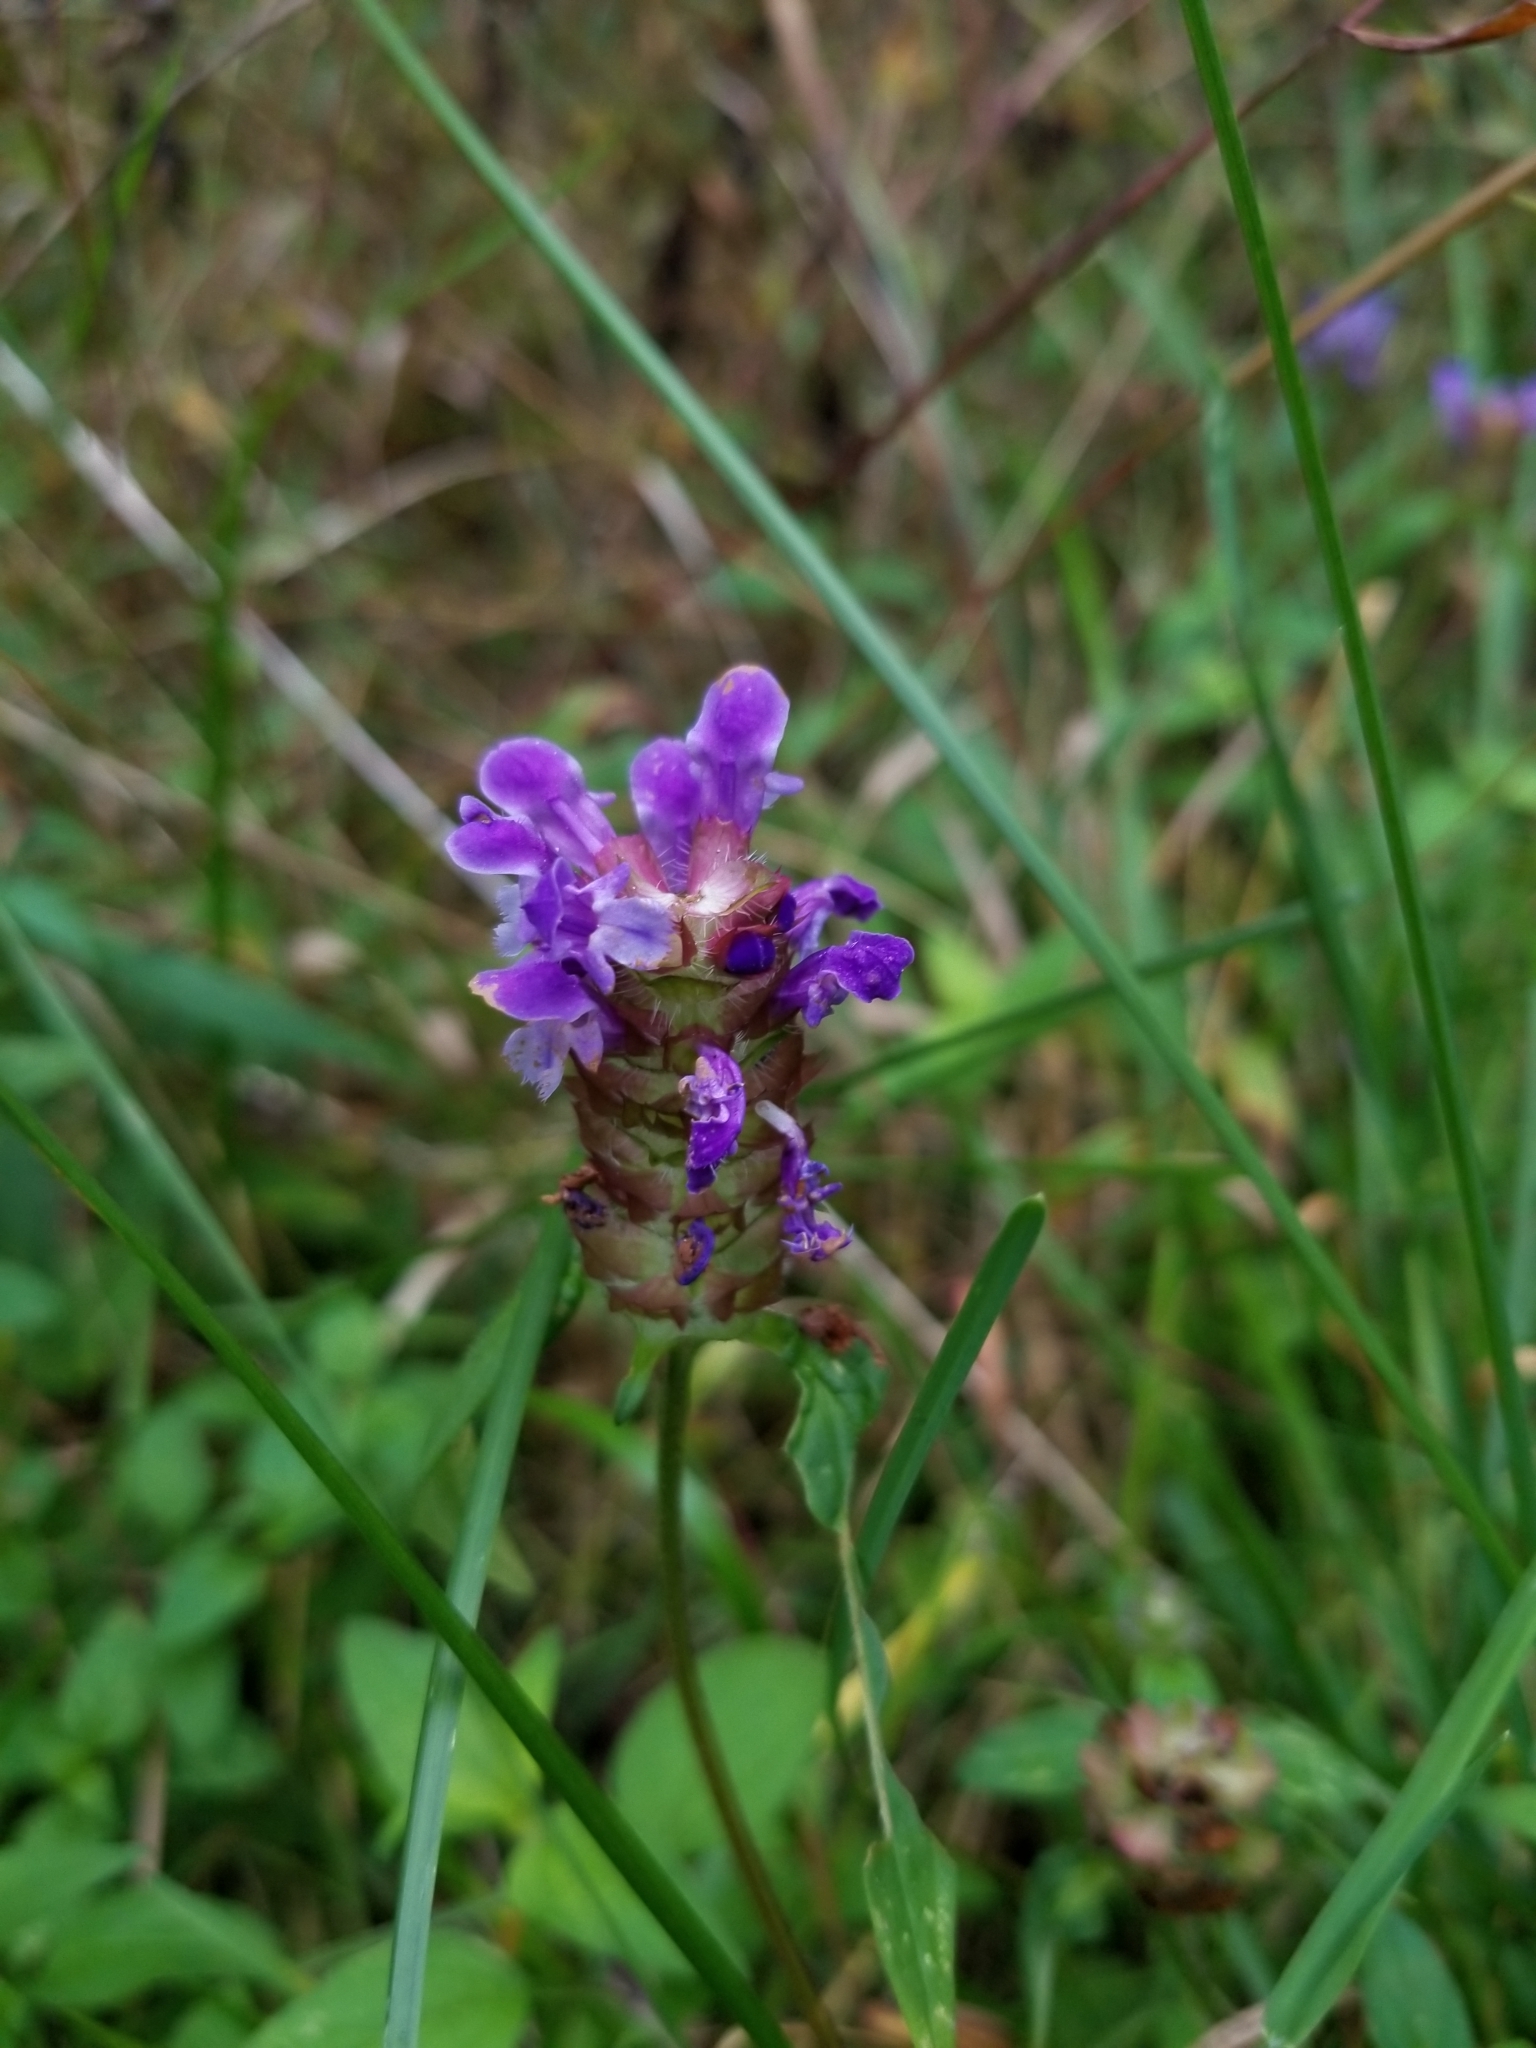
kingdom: Plantae
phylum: Tracheophyta
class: Magnoliopsida
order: Lamiales
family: Lamiaceae
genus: Prunella
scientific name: Prunella vulgaris
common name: Heal-all
